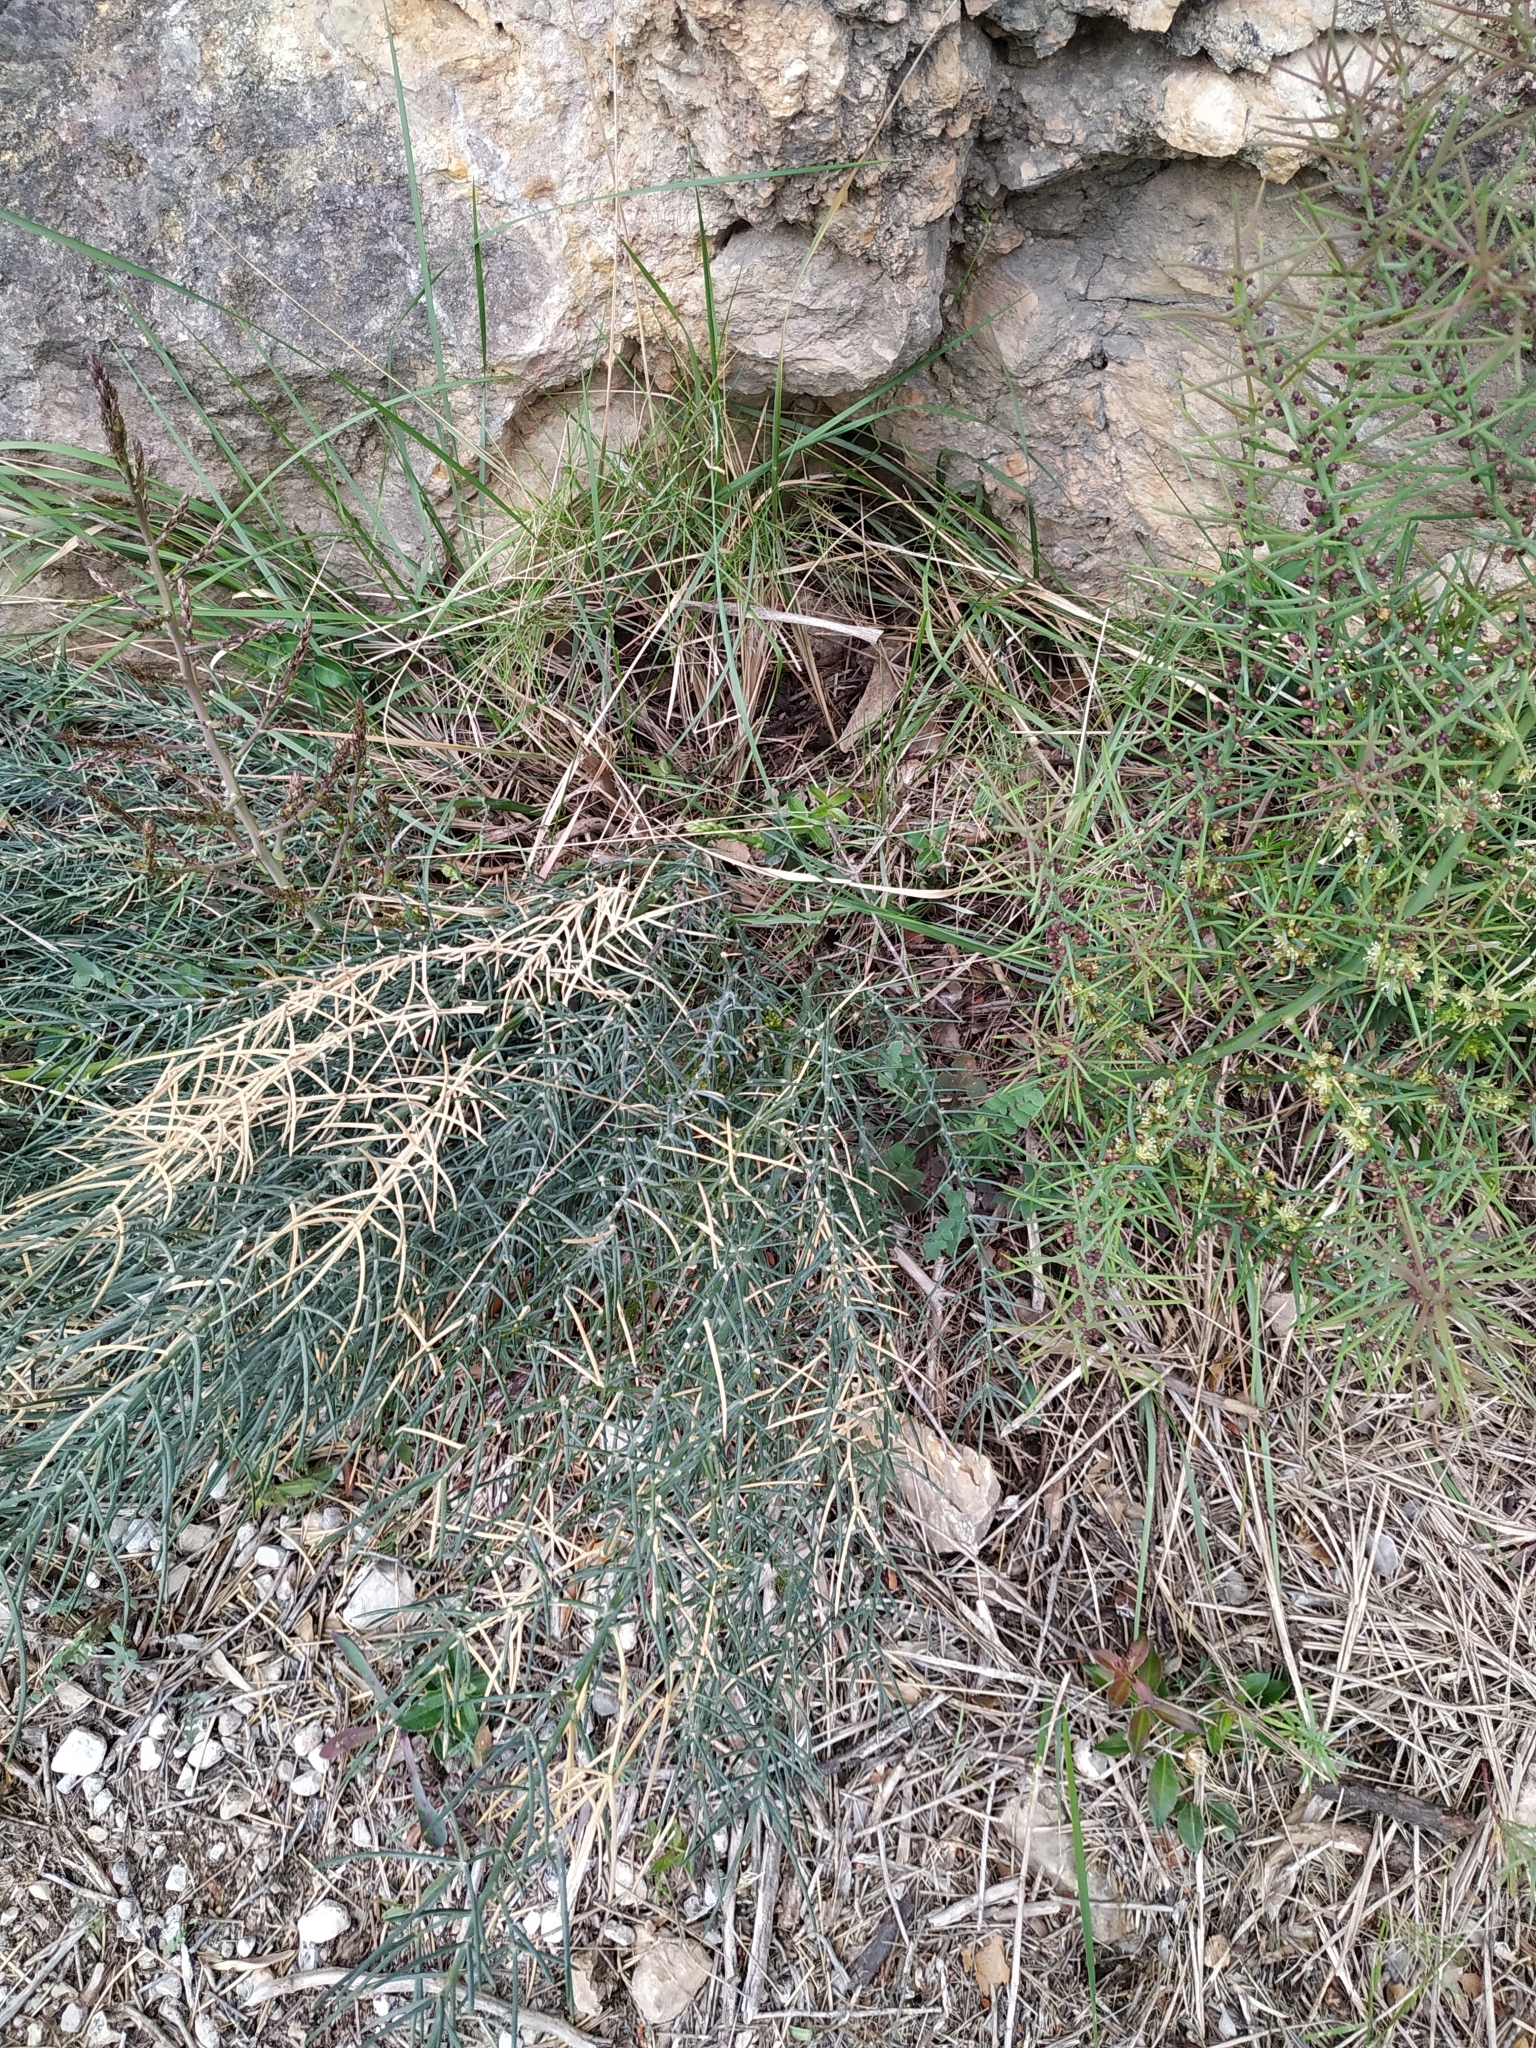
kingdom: Plantae
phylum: Tracheophyta
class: Liliopsida
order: Asparagales
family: Asparagaceae
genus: Asparagus
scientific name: Asparagus horridus
